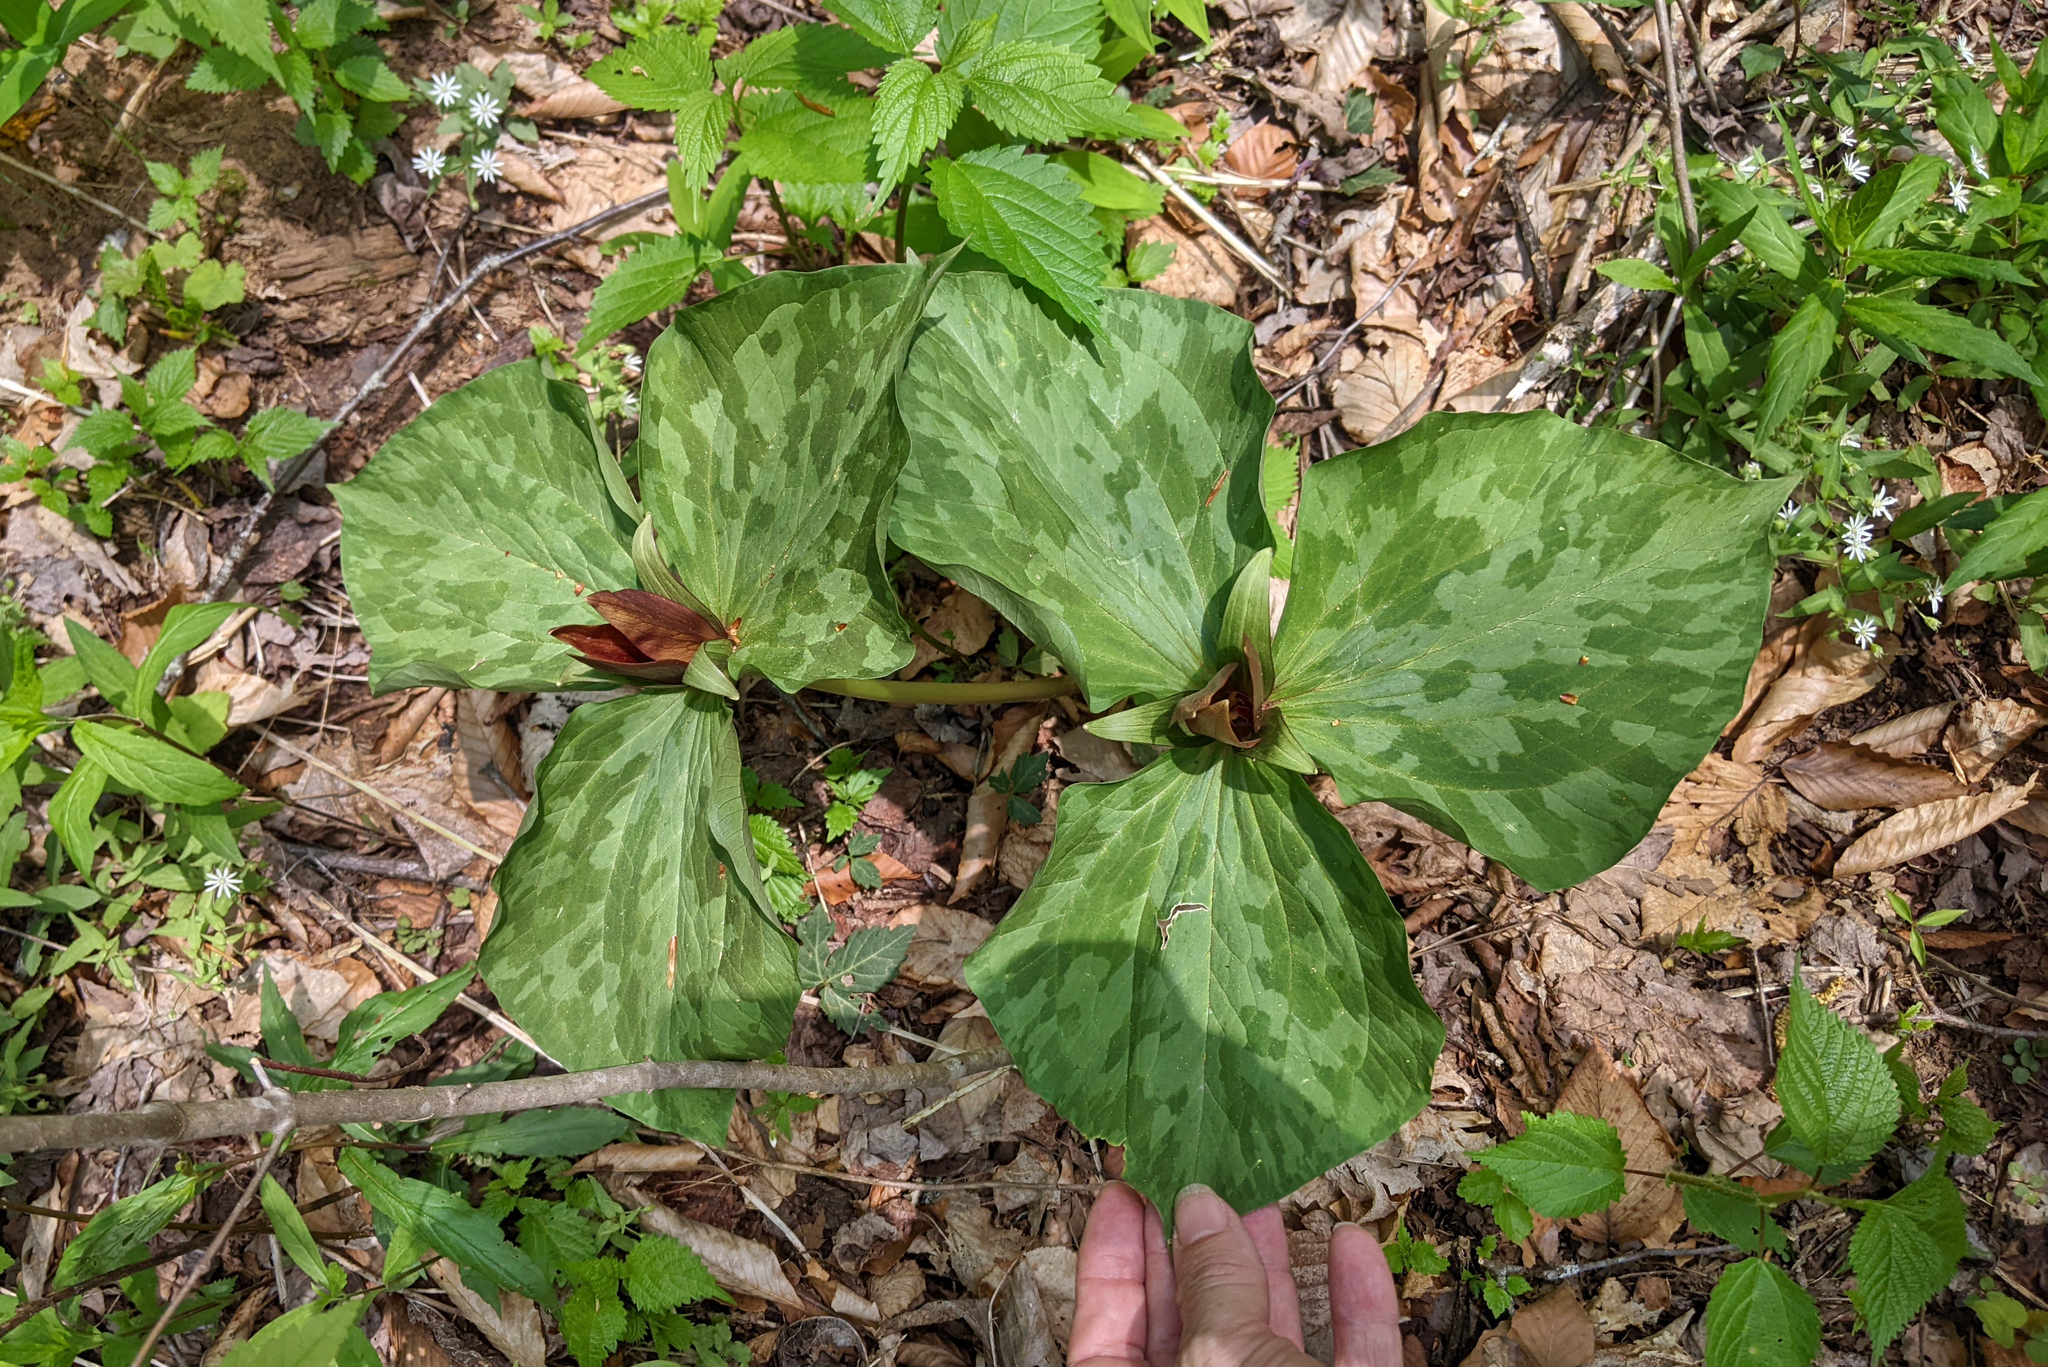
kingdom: Plantae
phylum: Tracheophyta
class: Liliopsida
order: Liliales
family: Melanthiaceae
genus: Trillium
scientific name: Trillium cuneatum
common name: Cuneate trillium
